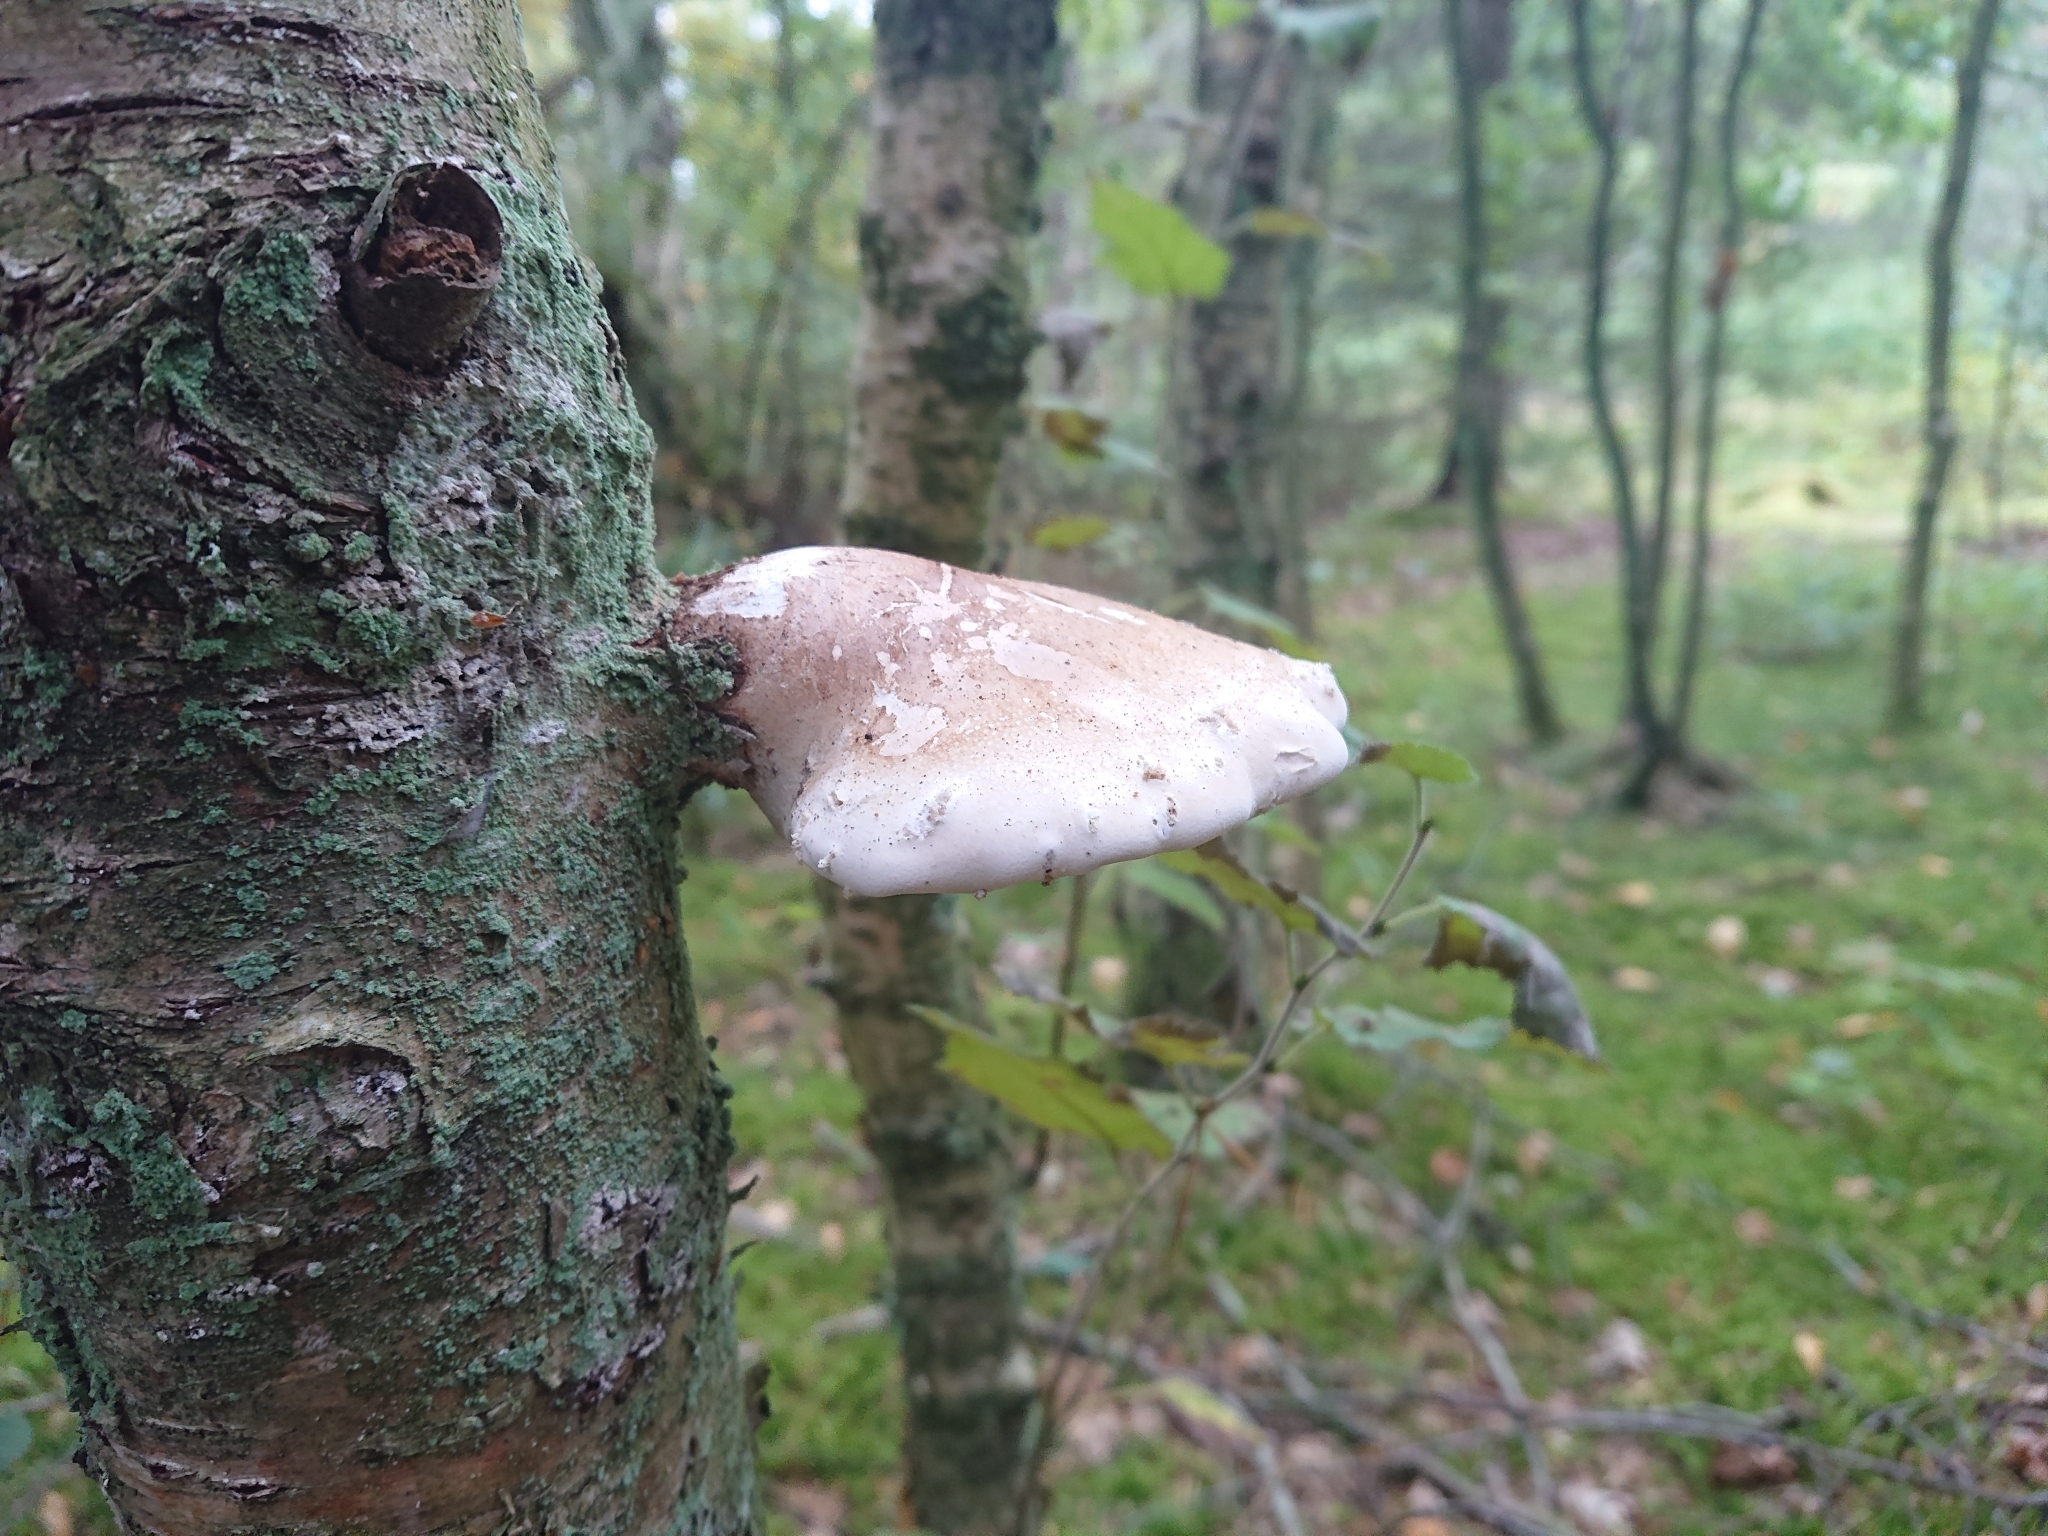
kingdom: Fungi
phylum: Basidiomycota
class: Agaricomycetes
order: Polyporales
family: Fomitopsidaceae
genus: Fomitopsis
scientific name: Fomitopsis betulina
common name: Birch polypore
